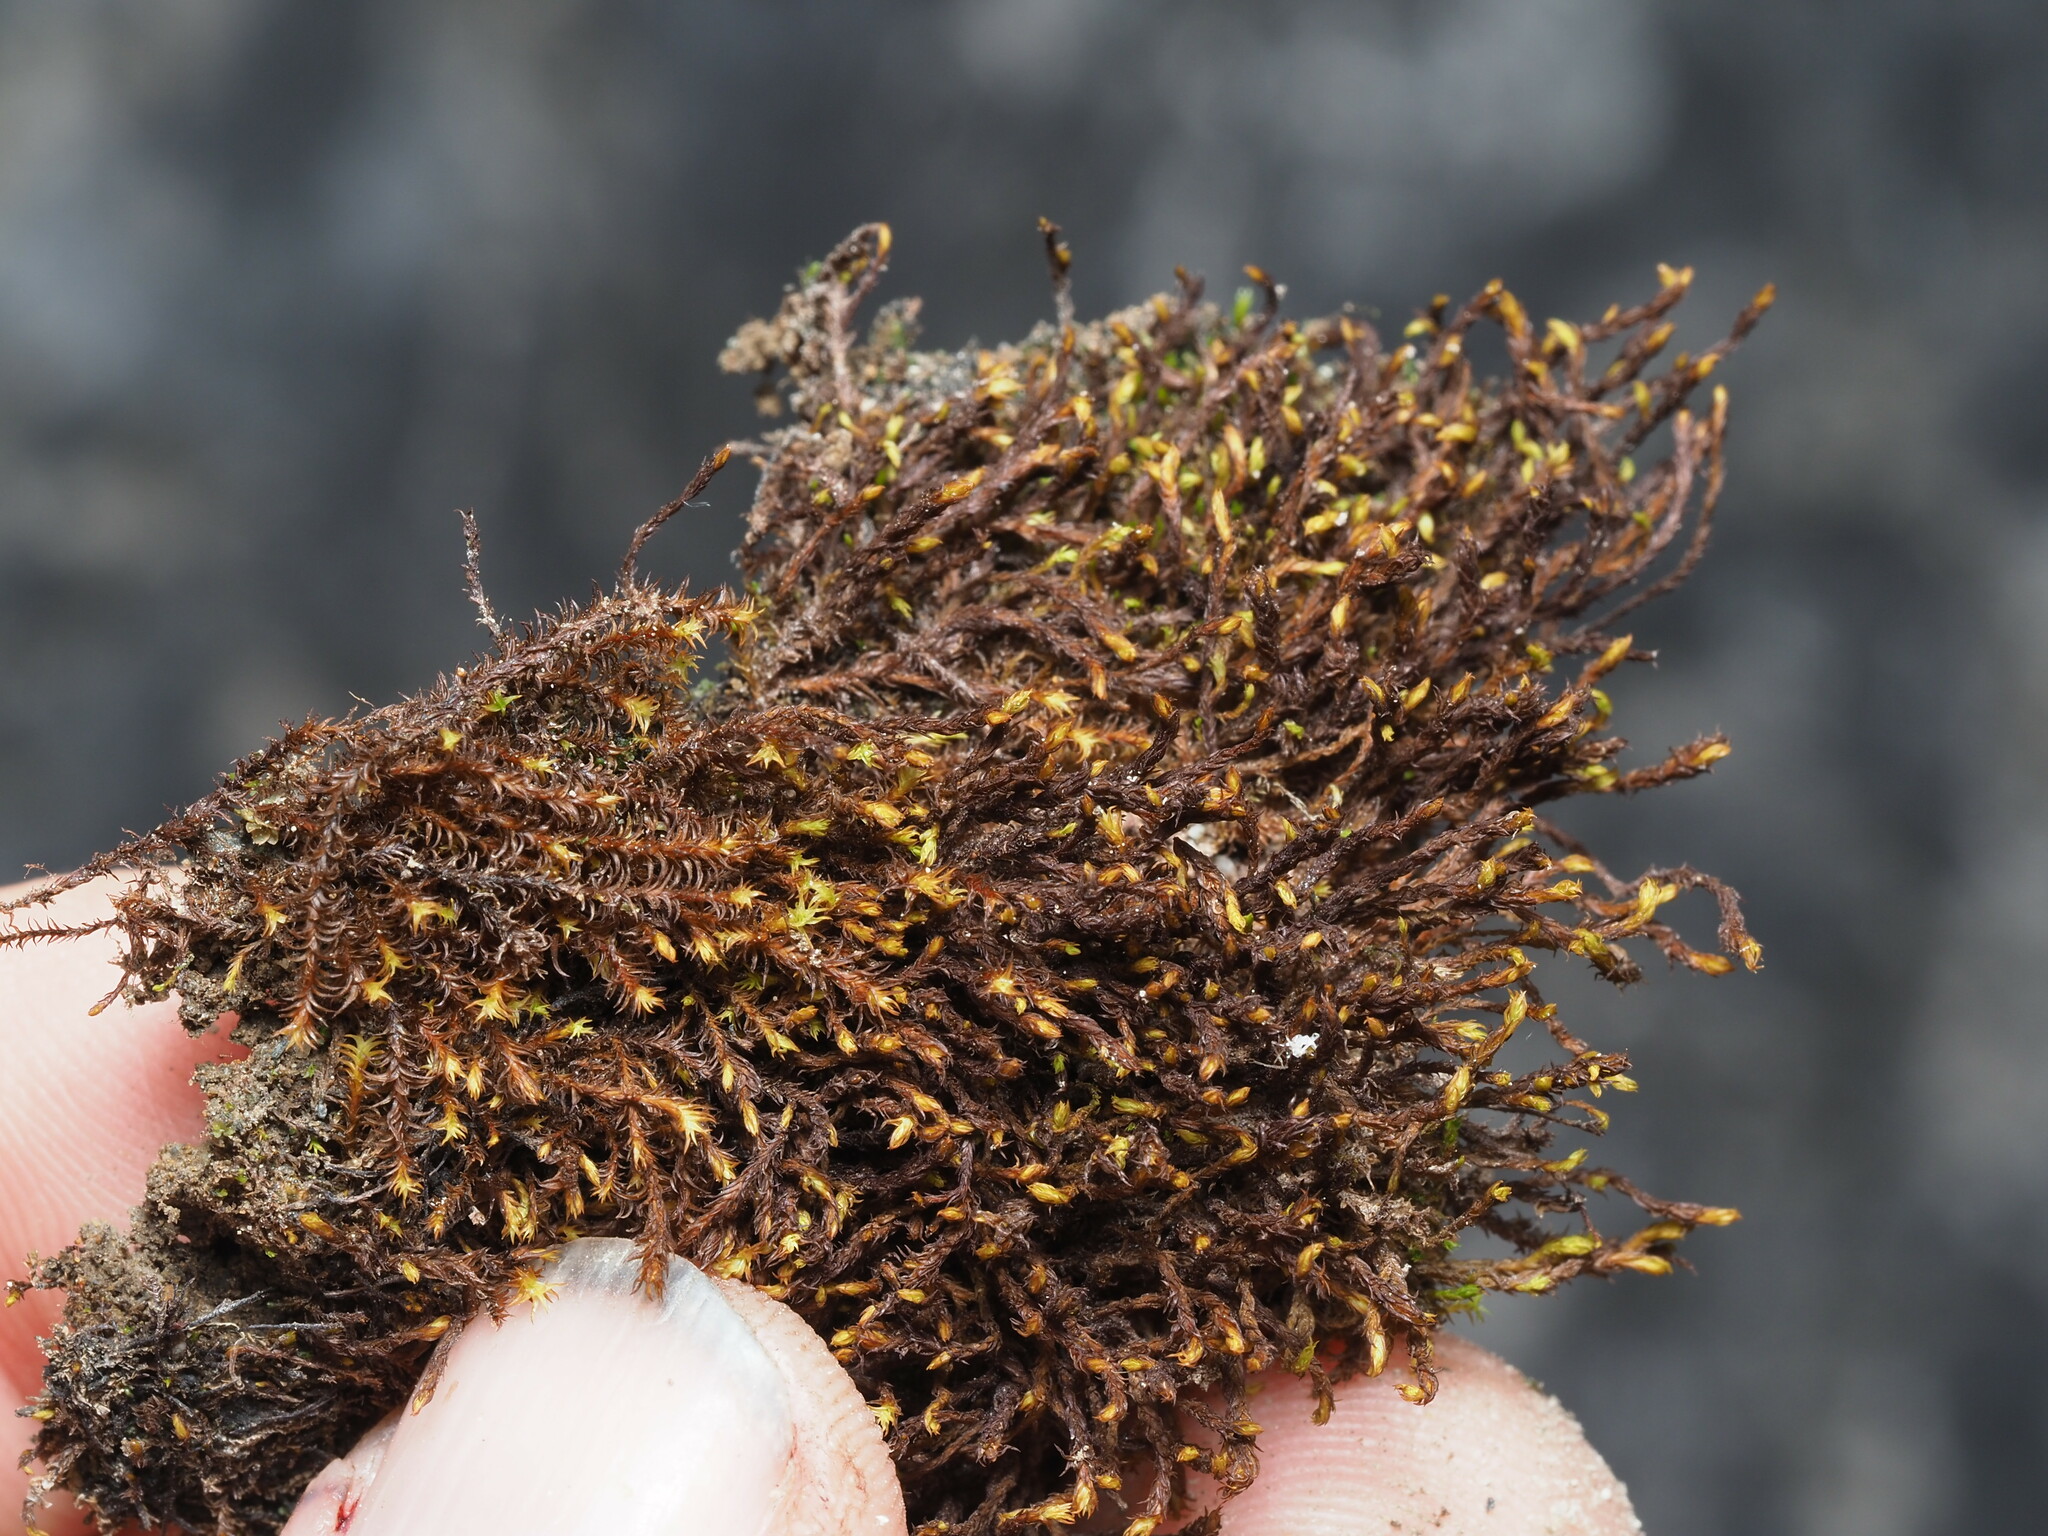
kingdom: Plantae
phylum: Bryophyta
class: Bryopsida
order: Pottiales
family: Pottiaceae
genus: Geheebia
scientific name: Geheebia ferruginea
